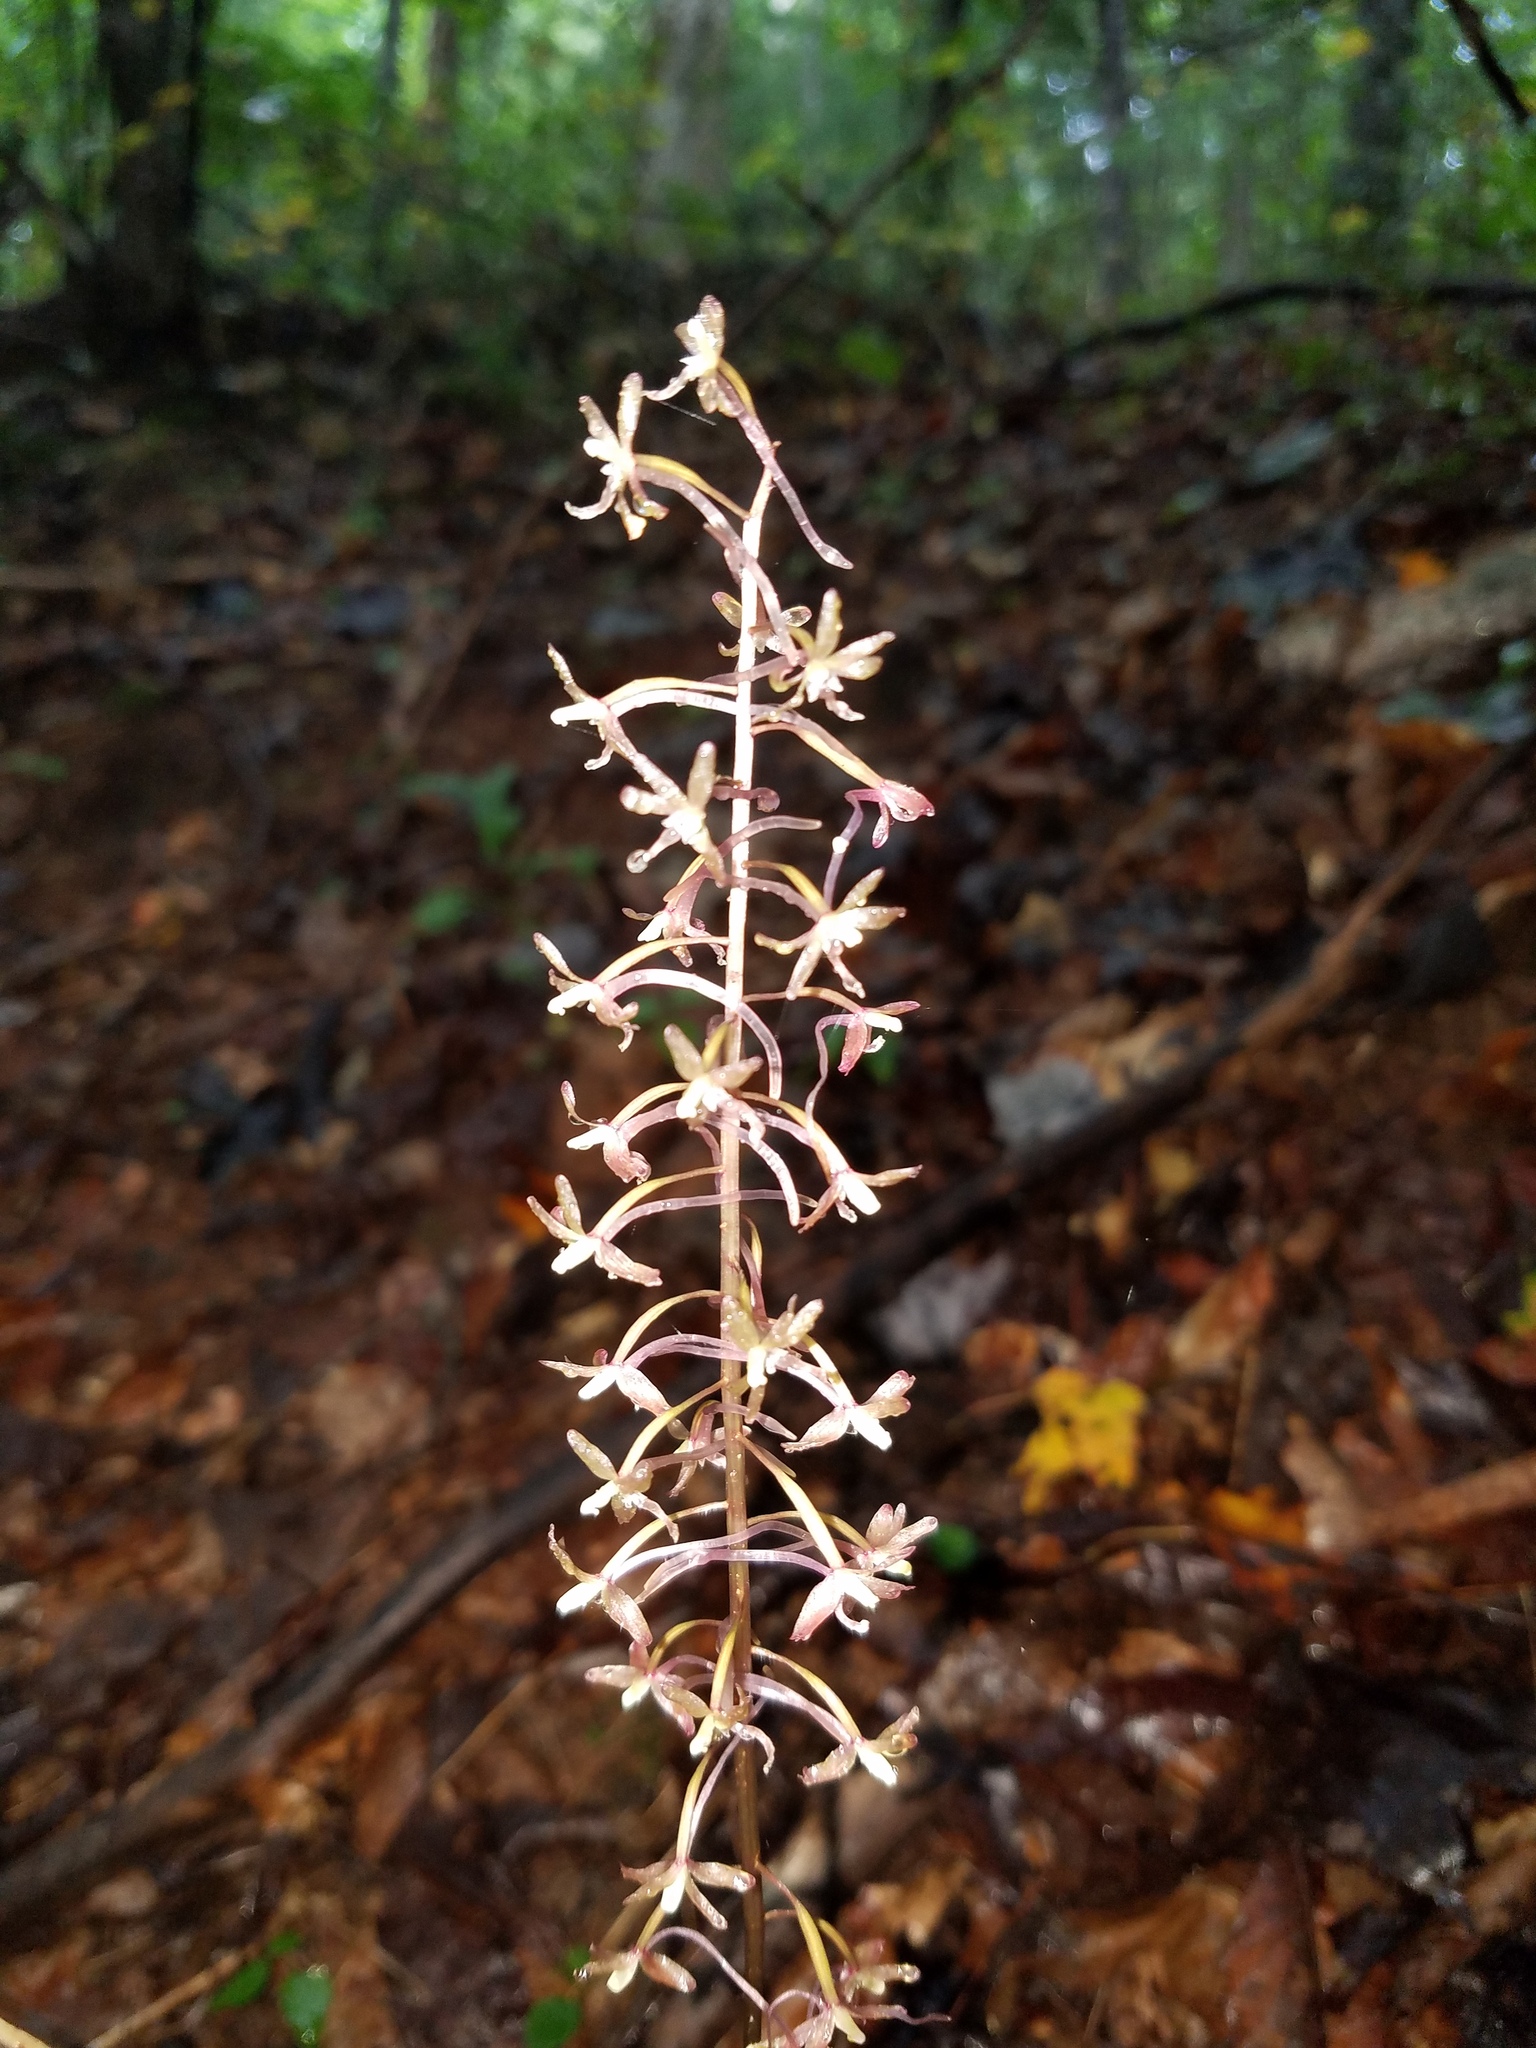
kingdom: Plantae
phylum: Tracheophyta
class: Liliopsida
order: Asparagales
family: Orchidaceae
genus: Tipularia
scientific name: Tipularia discolor
